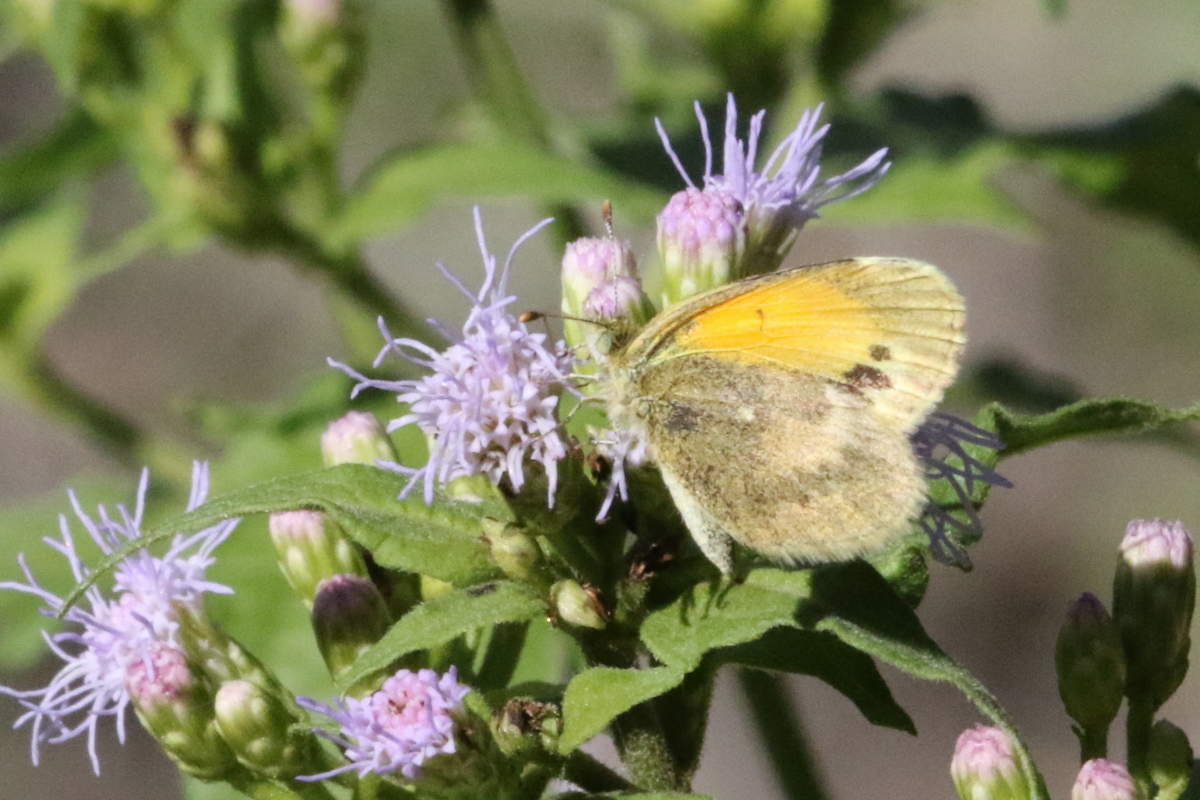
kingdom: Animalia
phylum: Arthropoda
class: Insecta
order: Lepidoptera
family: Pieridae
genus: Nathalis
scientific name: Nathalis iole
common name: Dainty sulphur
